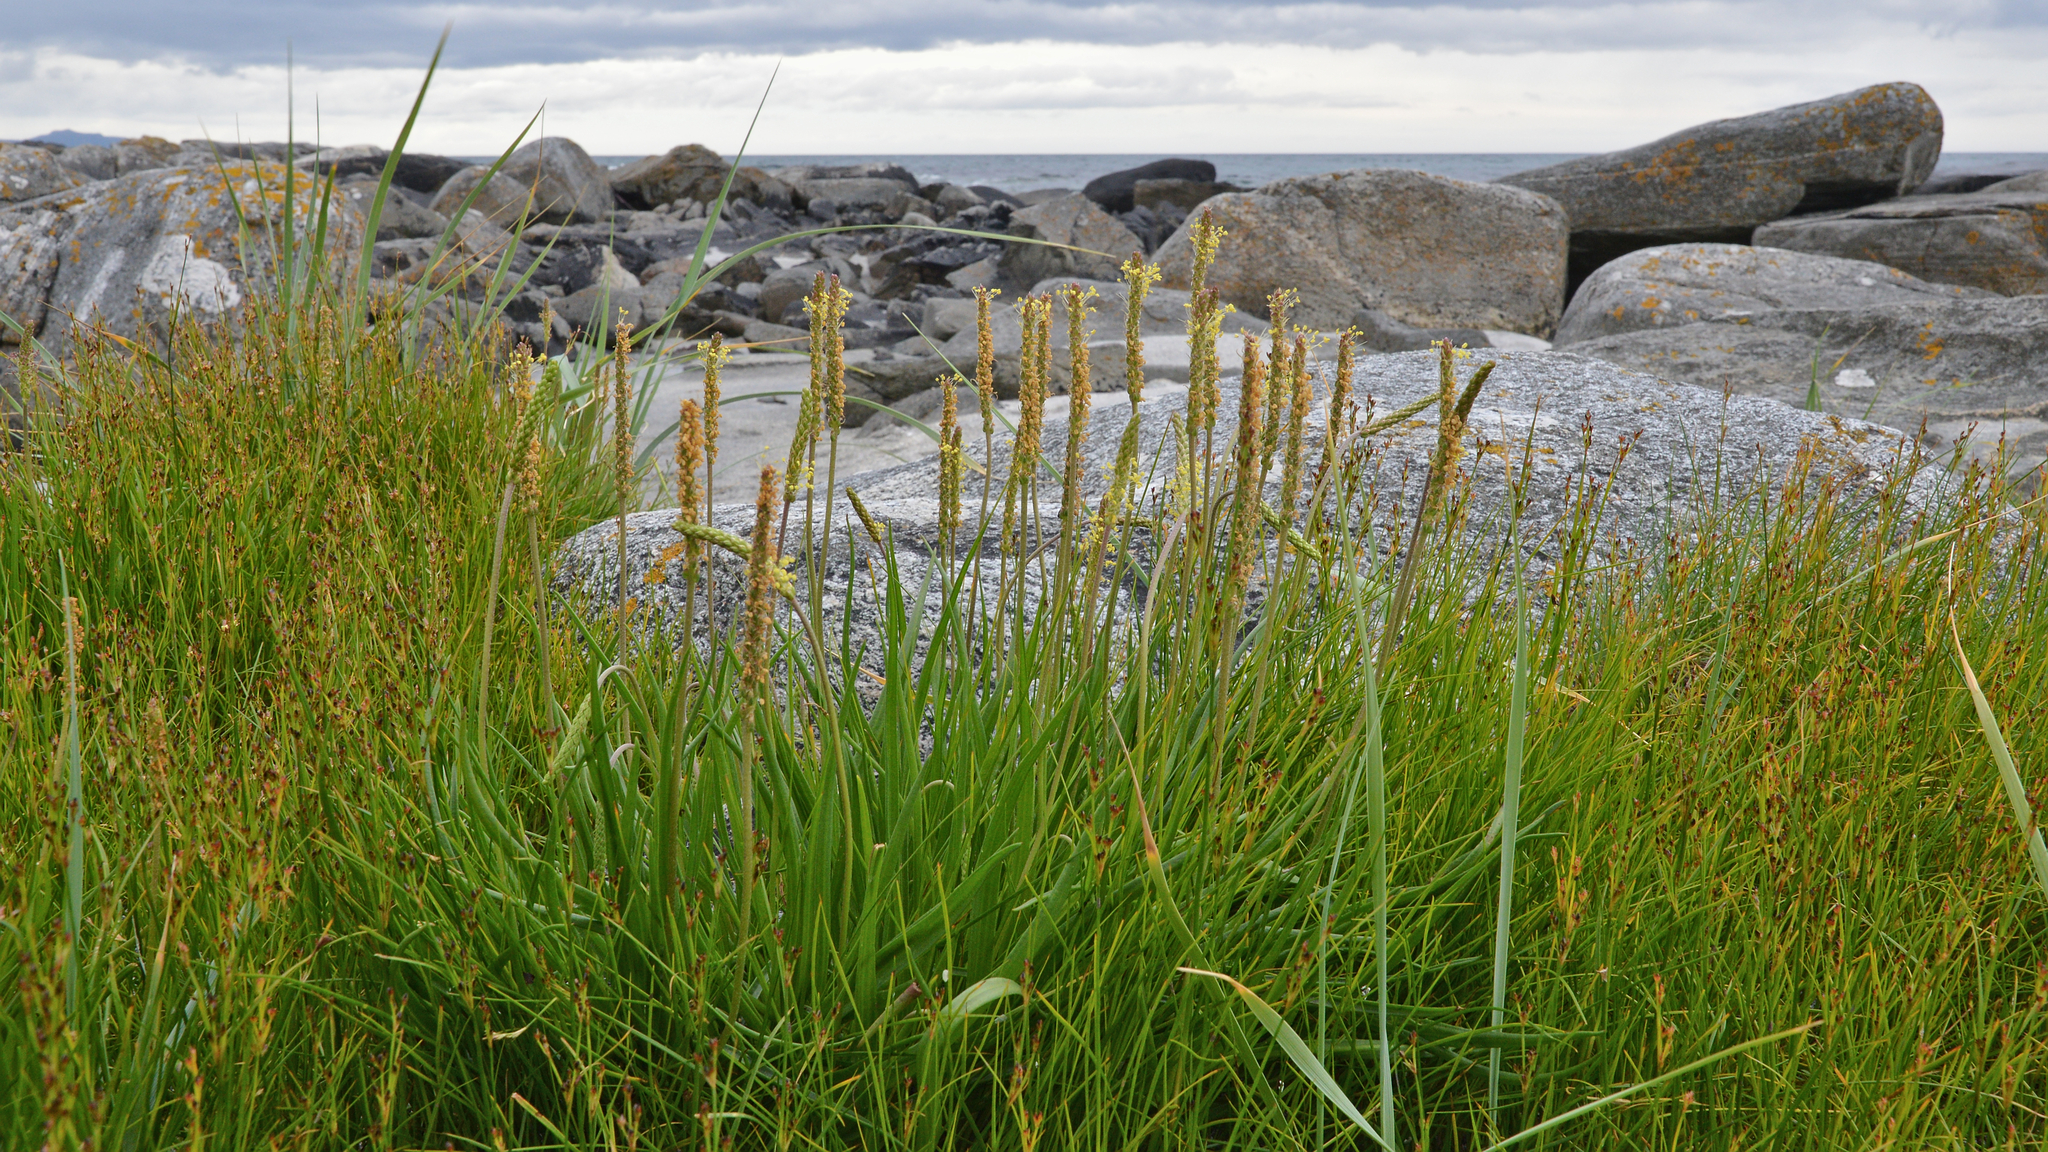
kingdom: Plantae
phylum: Tracheophyta
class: Magnoliopsida
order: Lamiales
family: Plantaginaceae
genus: Plantago
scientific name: Plantago maritima
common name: Sea plantain
